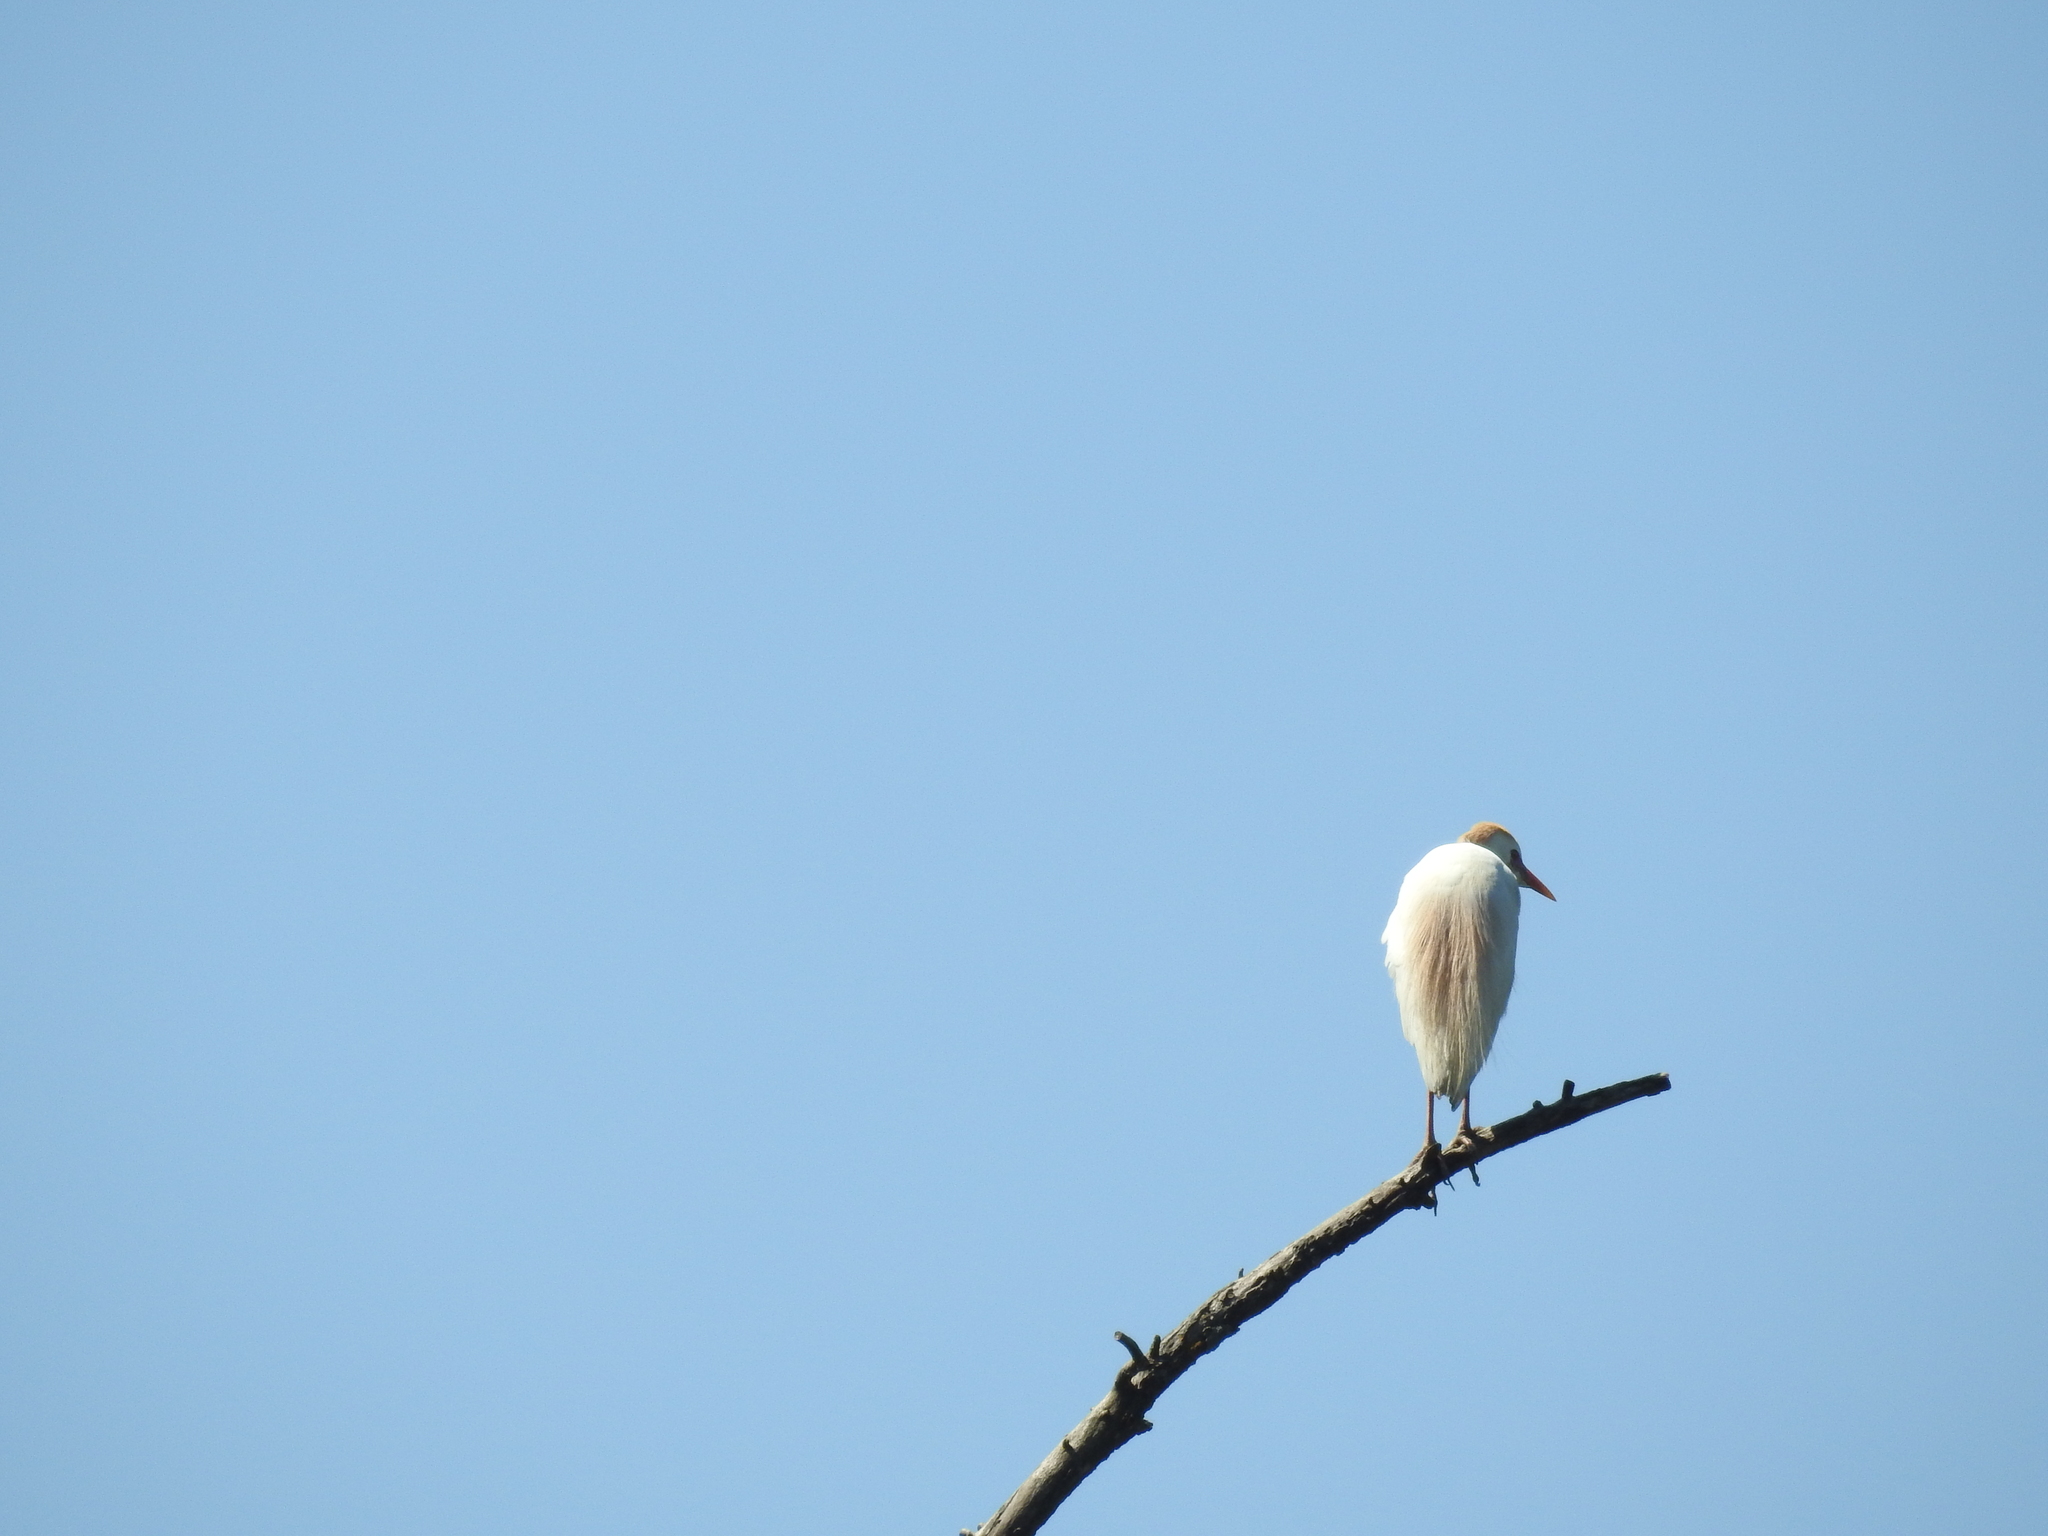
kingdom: Animalia
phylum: Chordata
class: Aves
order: Pelecaniformes
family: Ardeidae
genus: Bubulcus
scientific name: Bubulcus ibis
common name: Cattle egret
